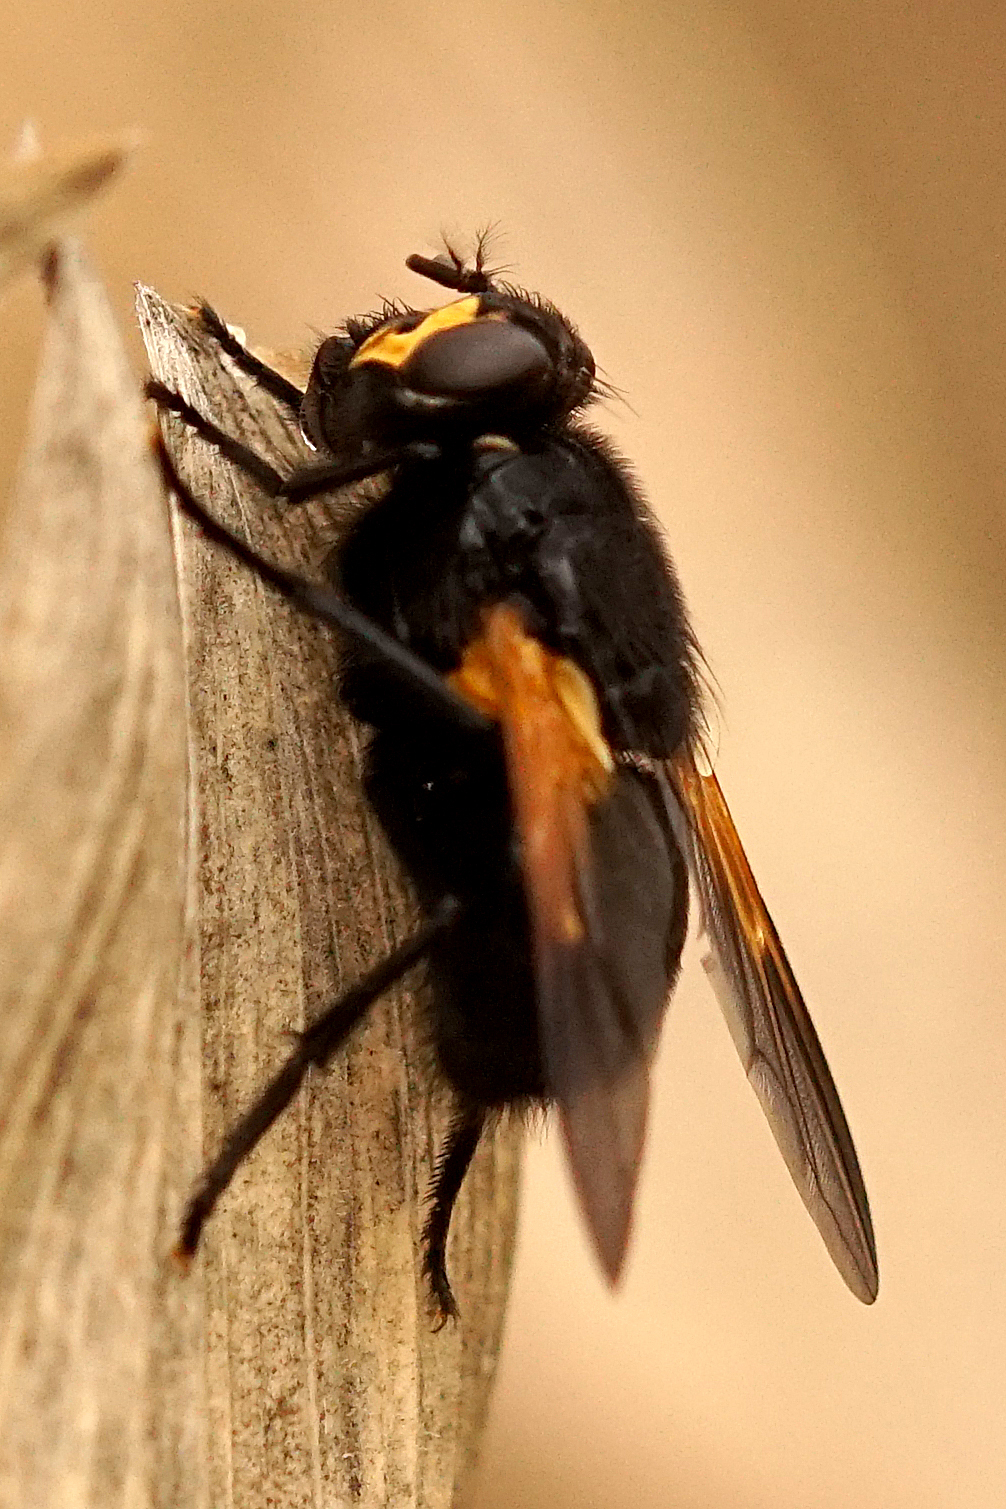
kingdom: Animalia
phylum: Arthropoda
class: Insecta
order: Diptera
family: Muscidae
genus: Mesembrina
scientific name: Mesembrina meridiana
